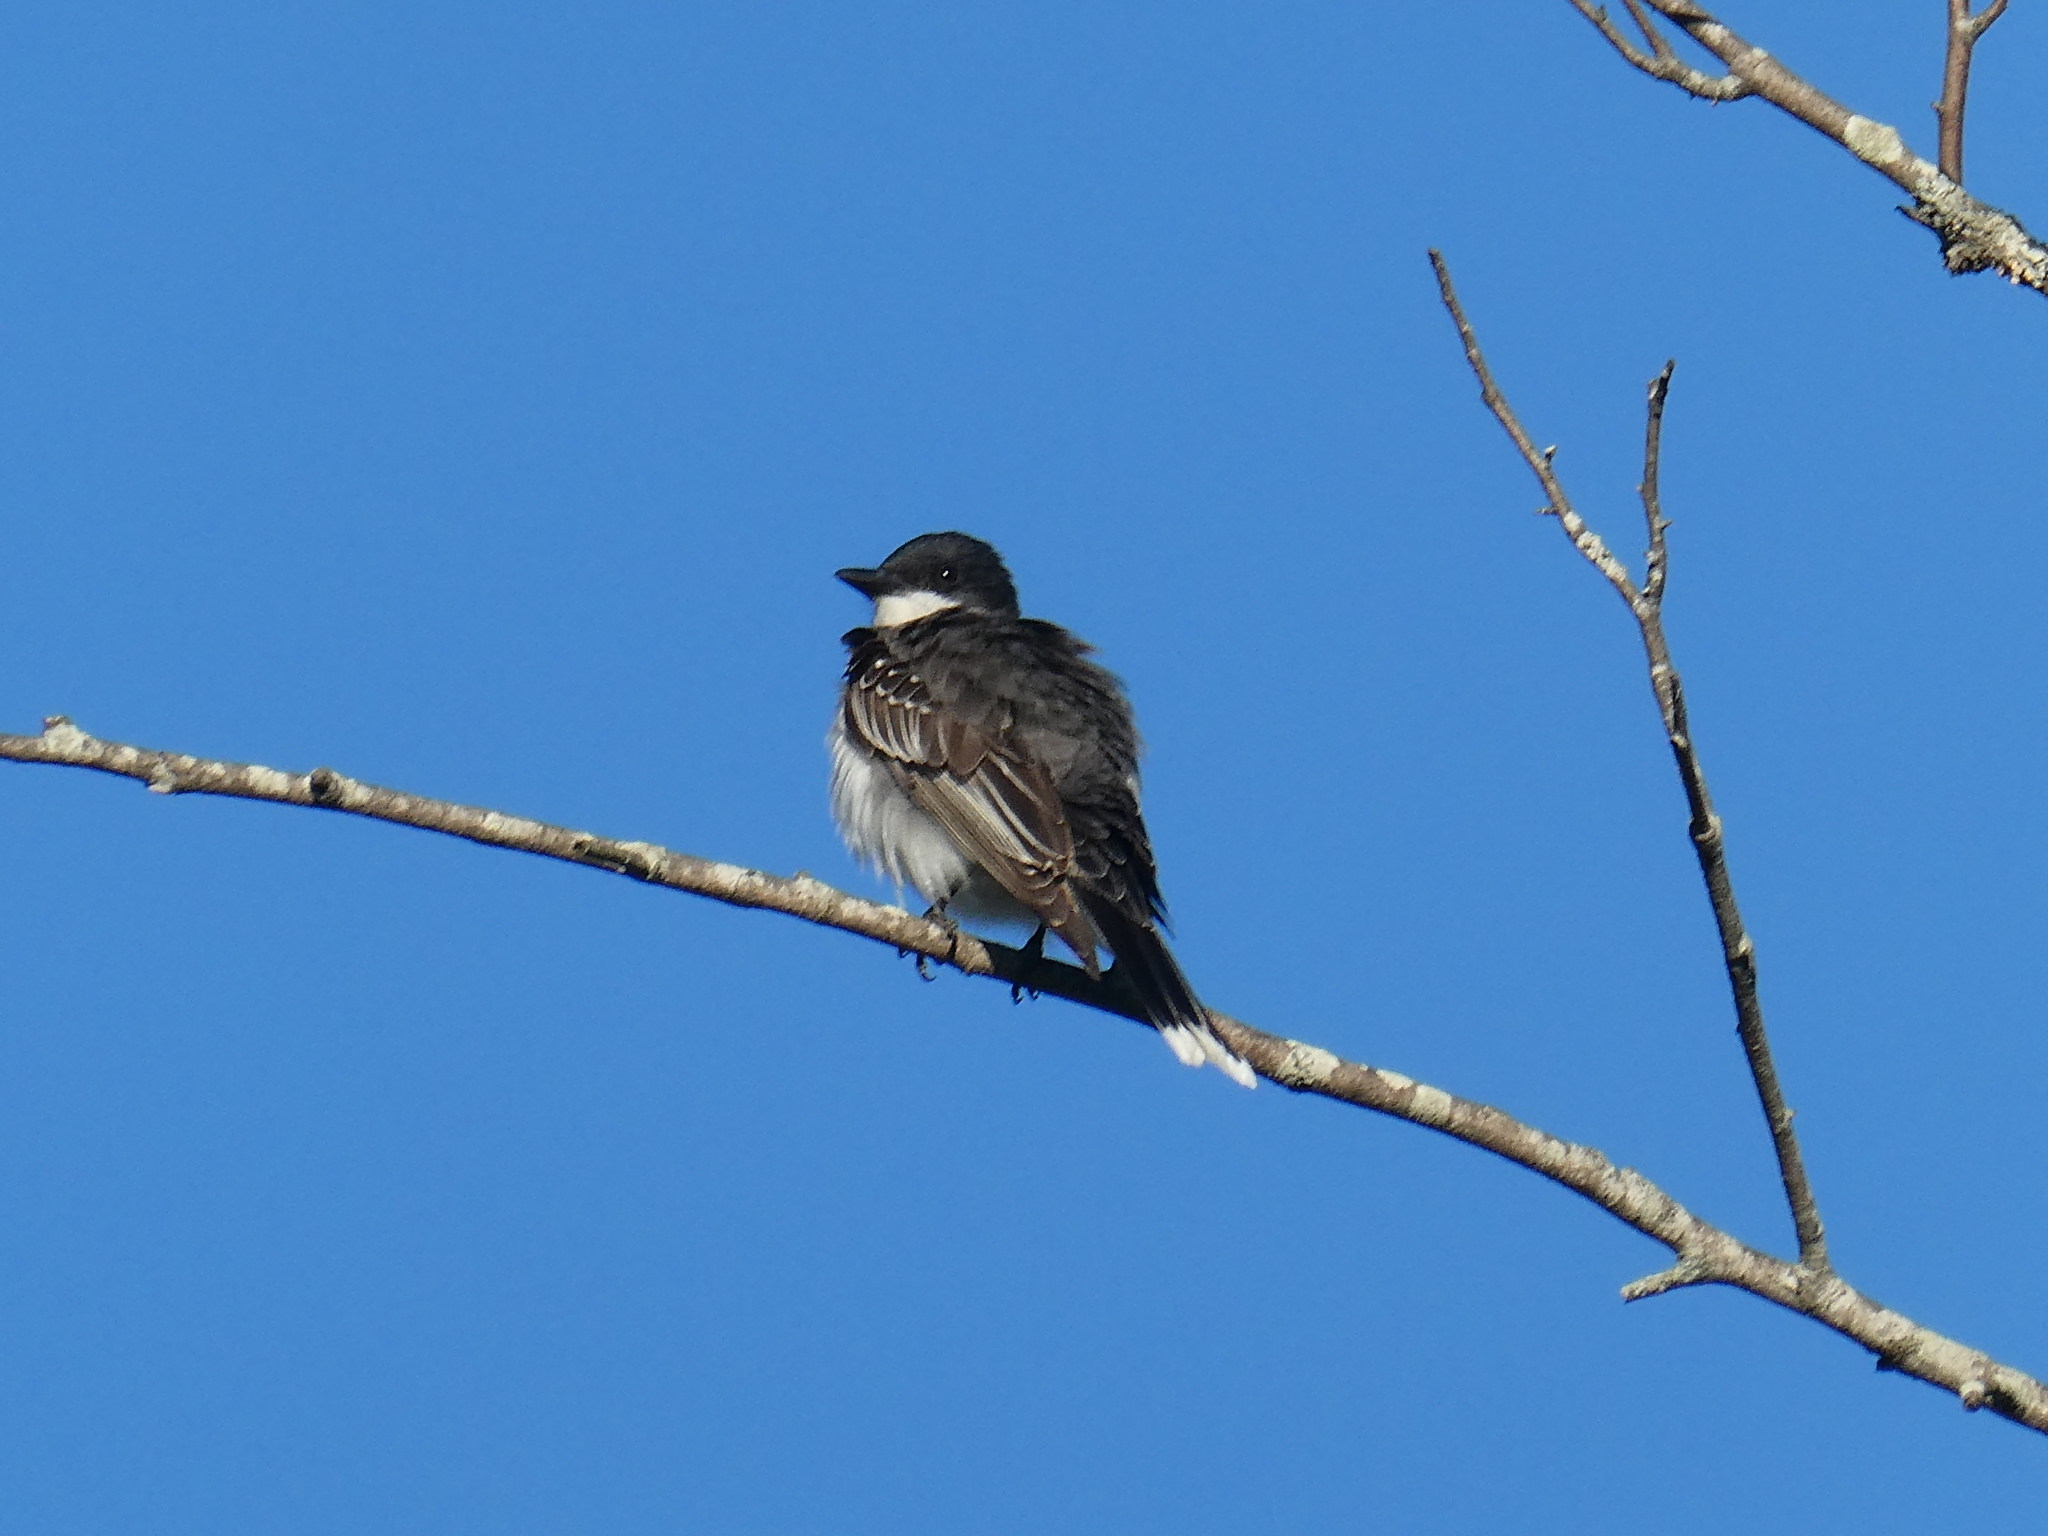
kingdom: Animalia
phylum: Chordata
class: Aves
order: Passeriformes
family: Tyrannidae
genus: Tyrannus
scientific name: Tyrannus tyrannus
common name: Eastern kingbird
